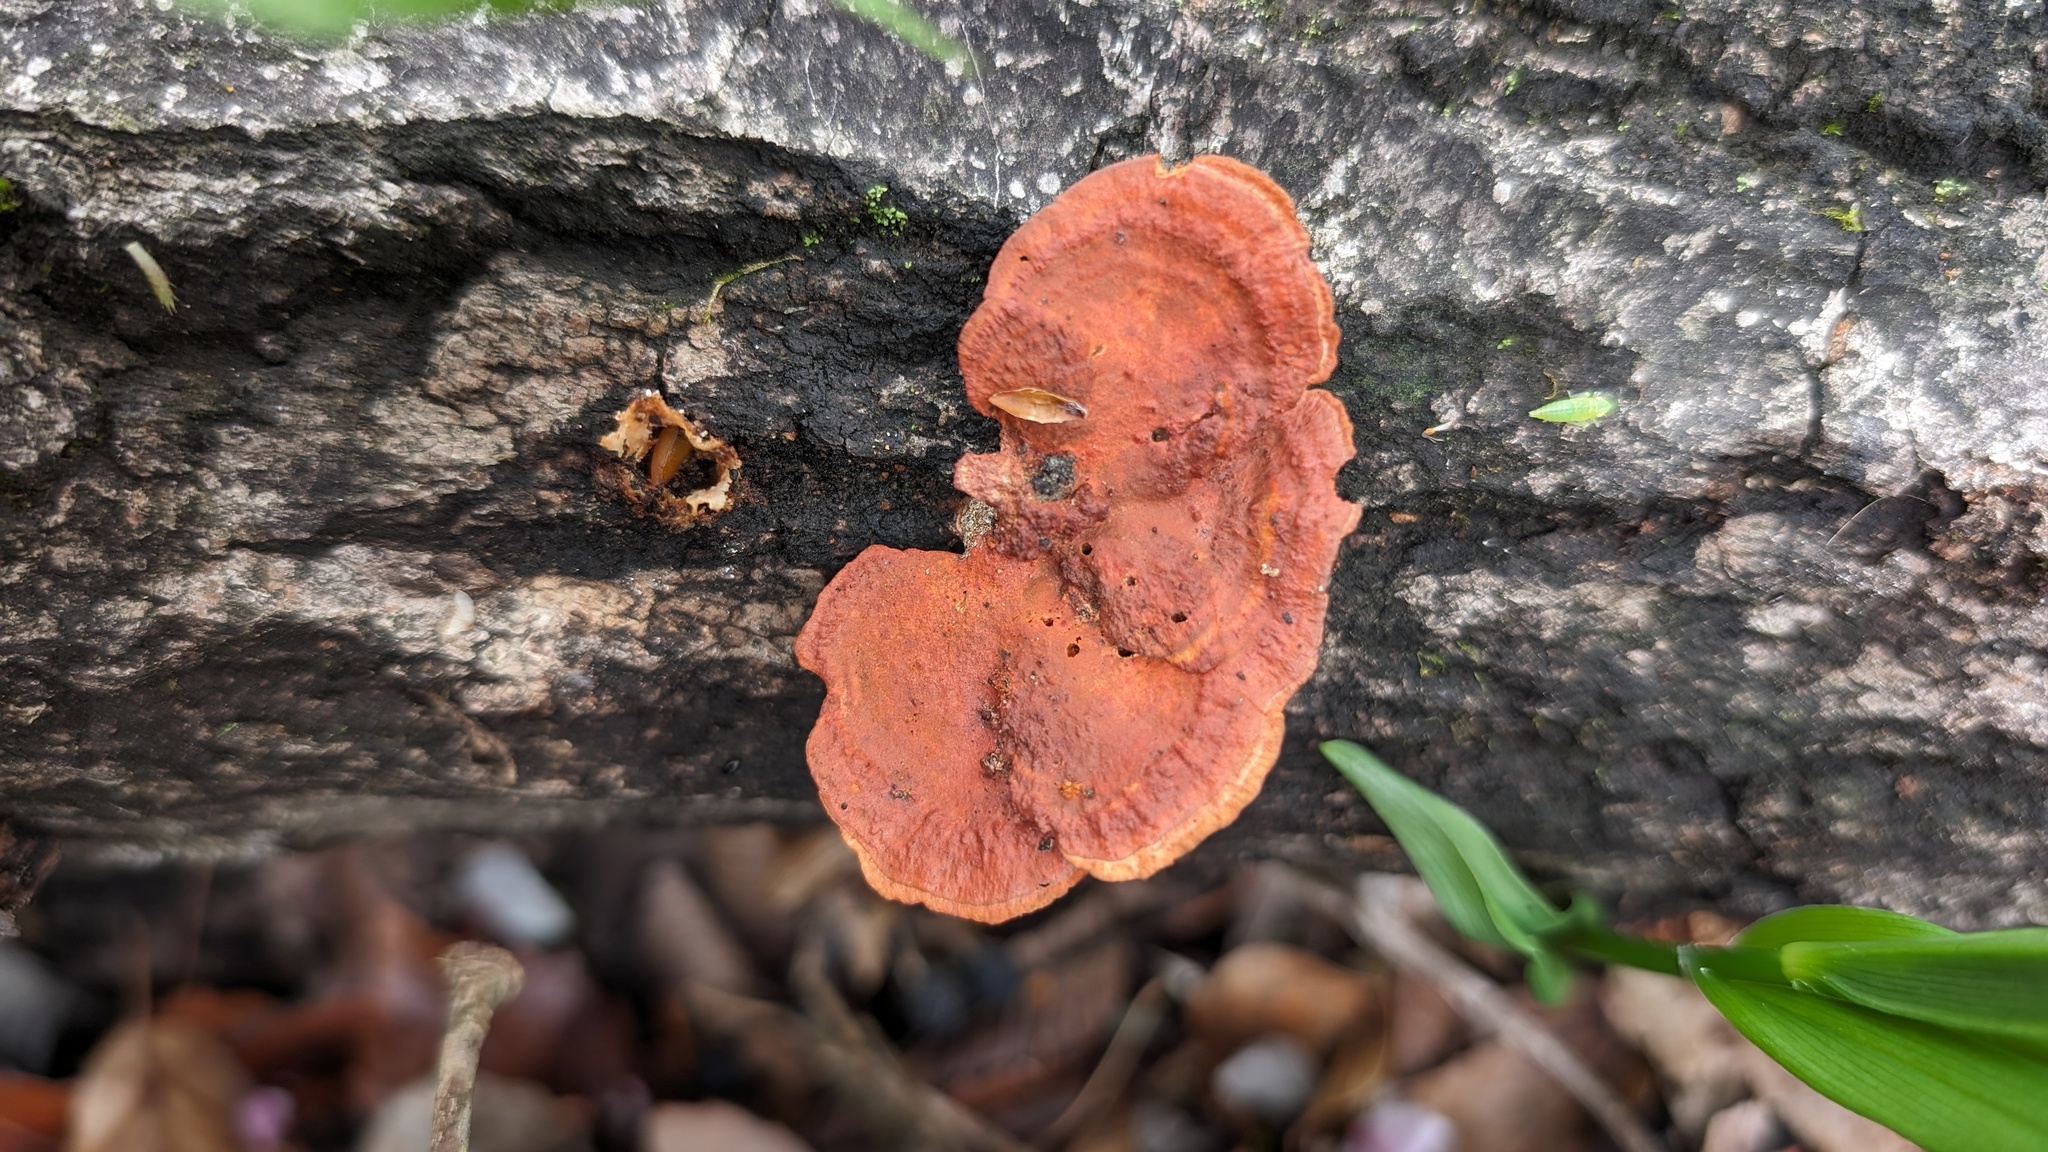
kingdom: Fungi
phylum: Basidiomycota
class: Agaricomycetes
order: Polyporales
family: Polyporaceae
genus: Trametes
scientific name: Trametes coccinea
